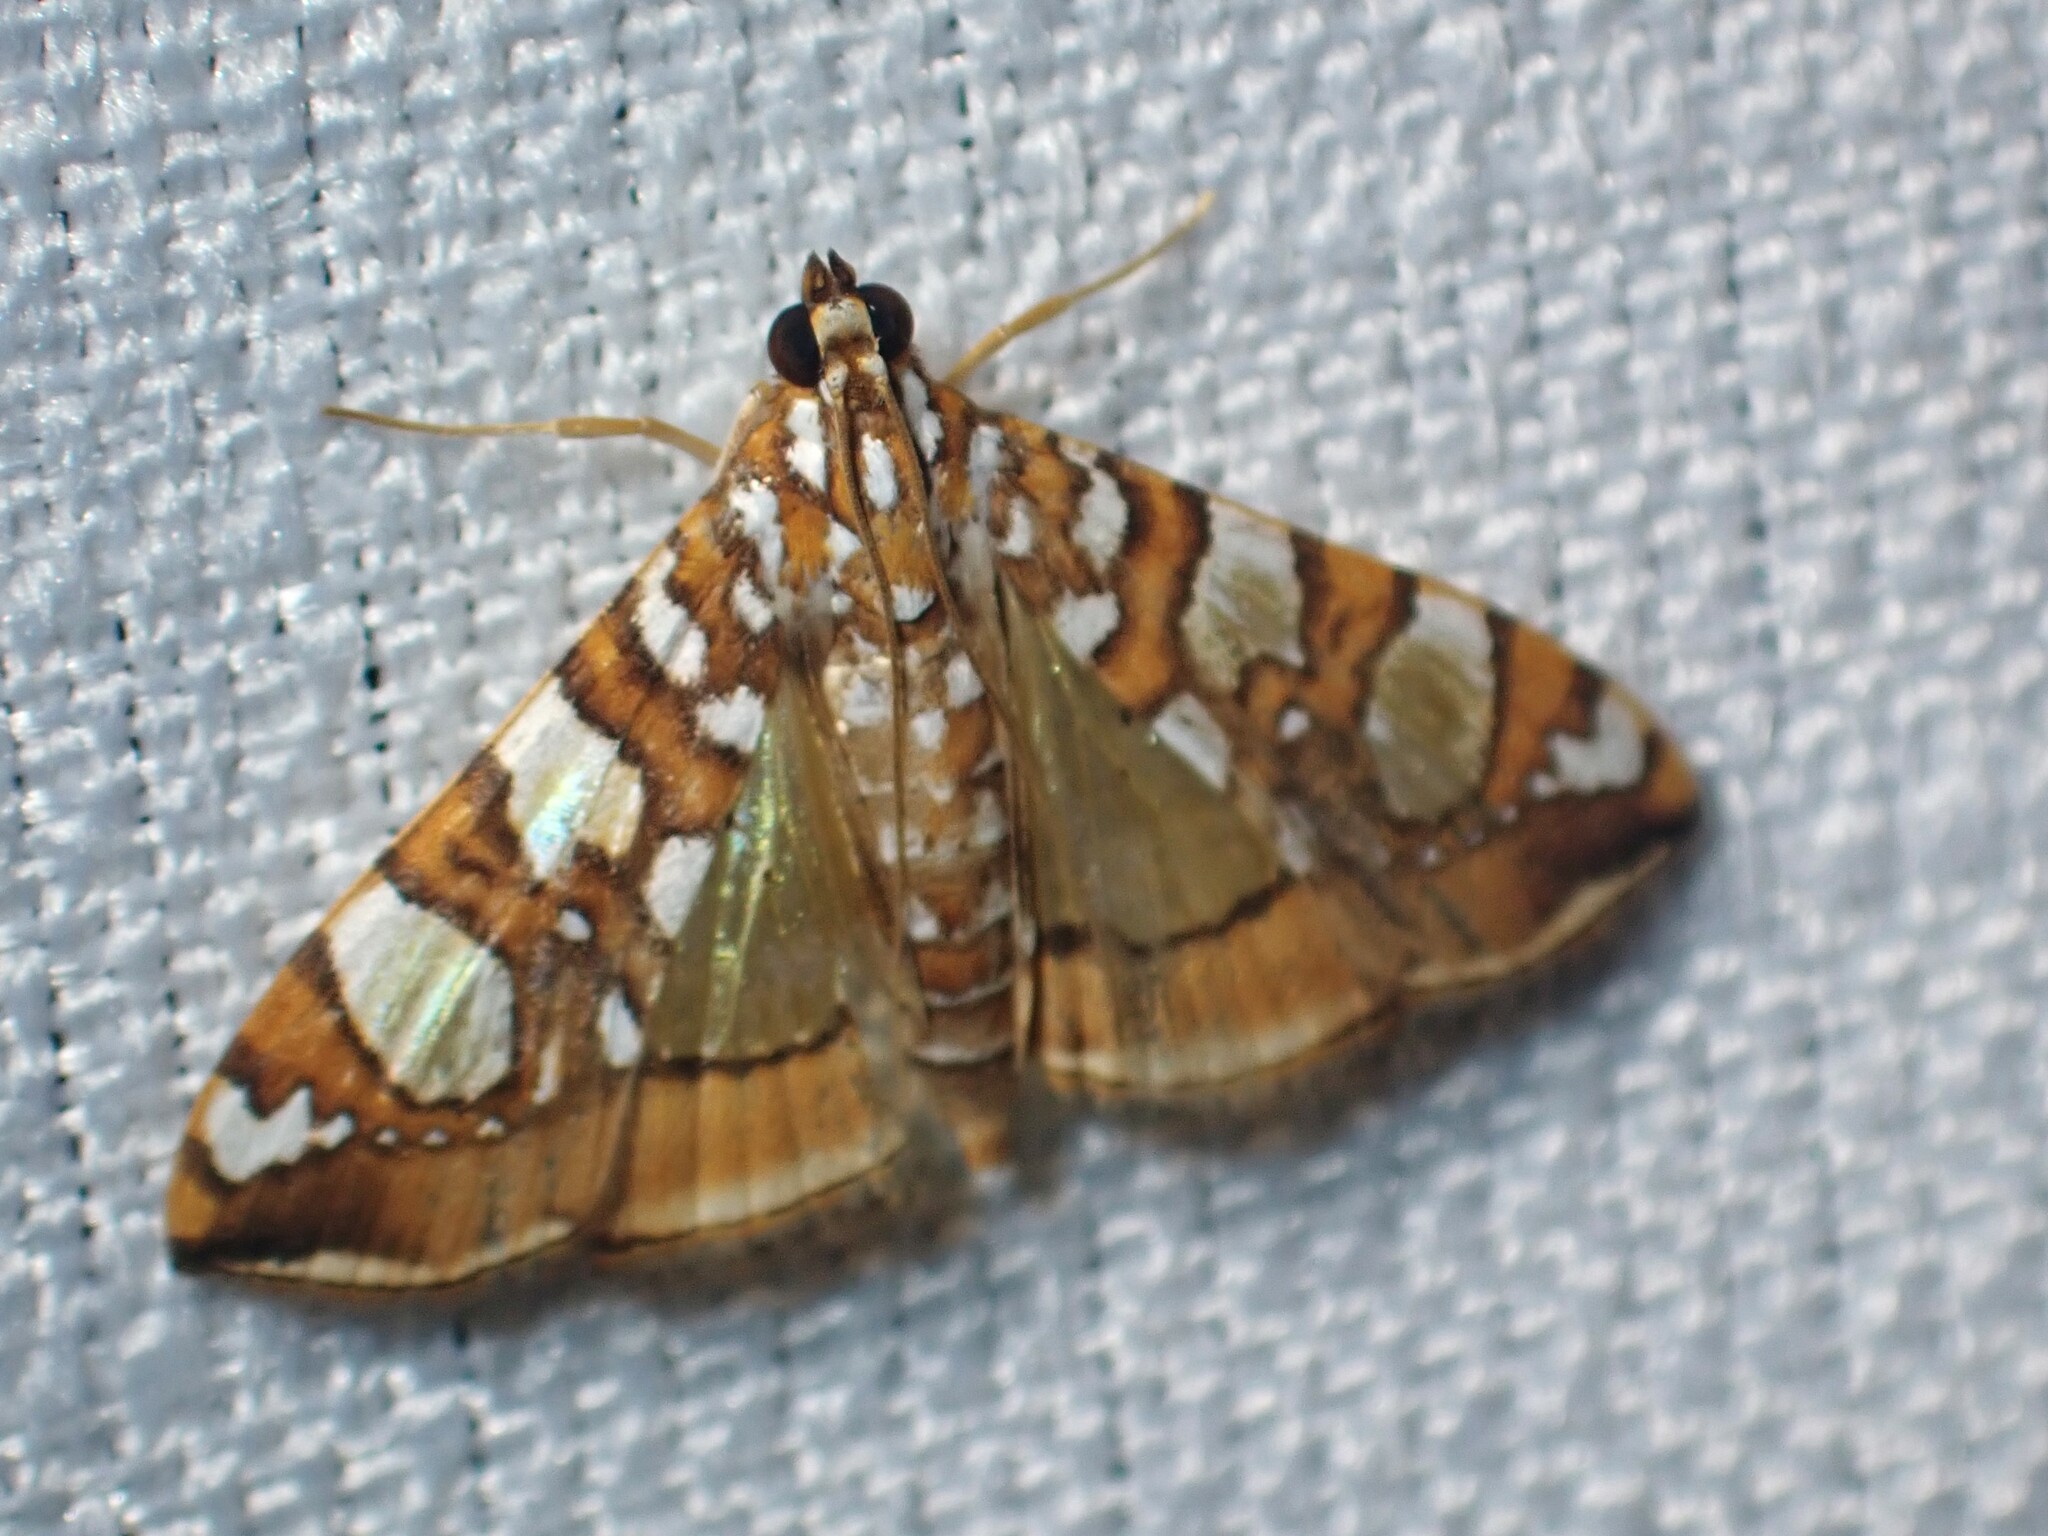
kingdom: Animalia
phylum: Arthropoda
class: Insecta
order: Lepidoptera
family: Crambidae
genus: Glyphodes
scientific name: Glyphodes sibillalis
